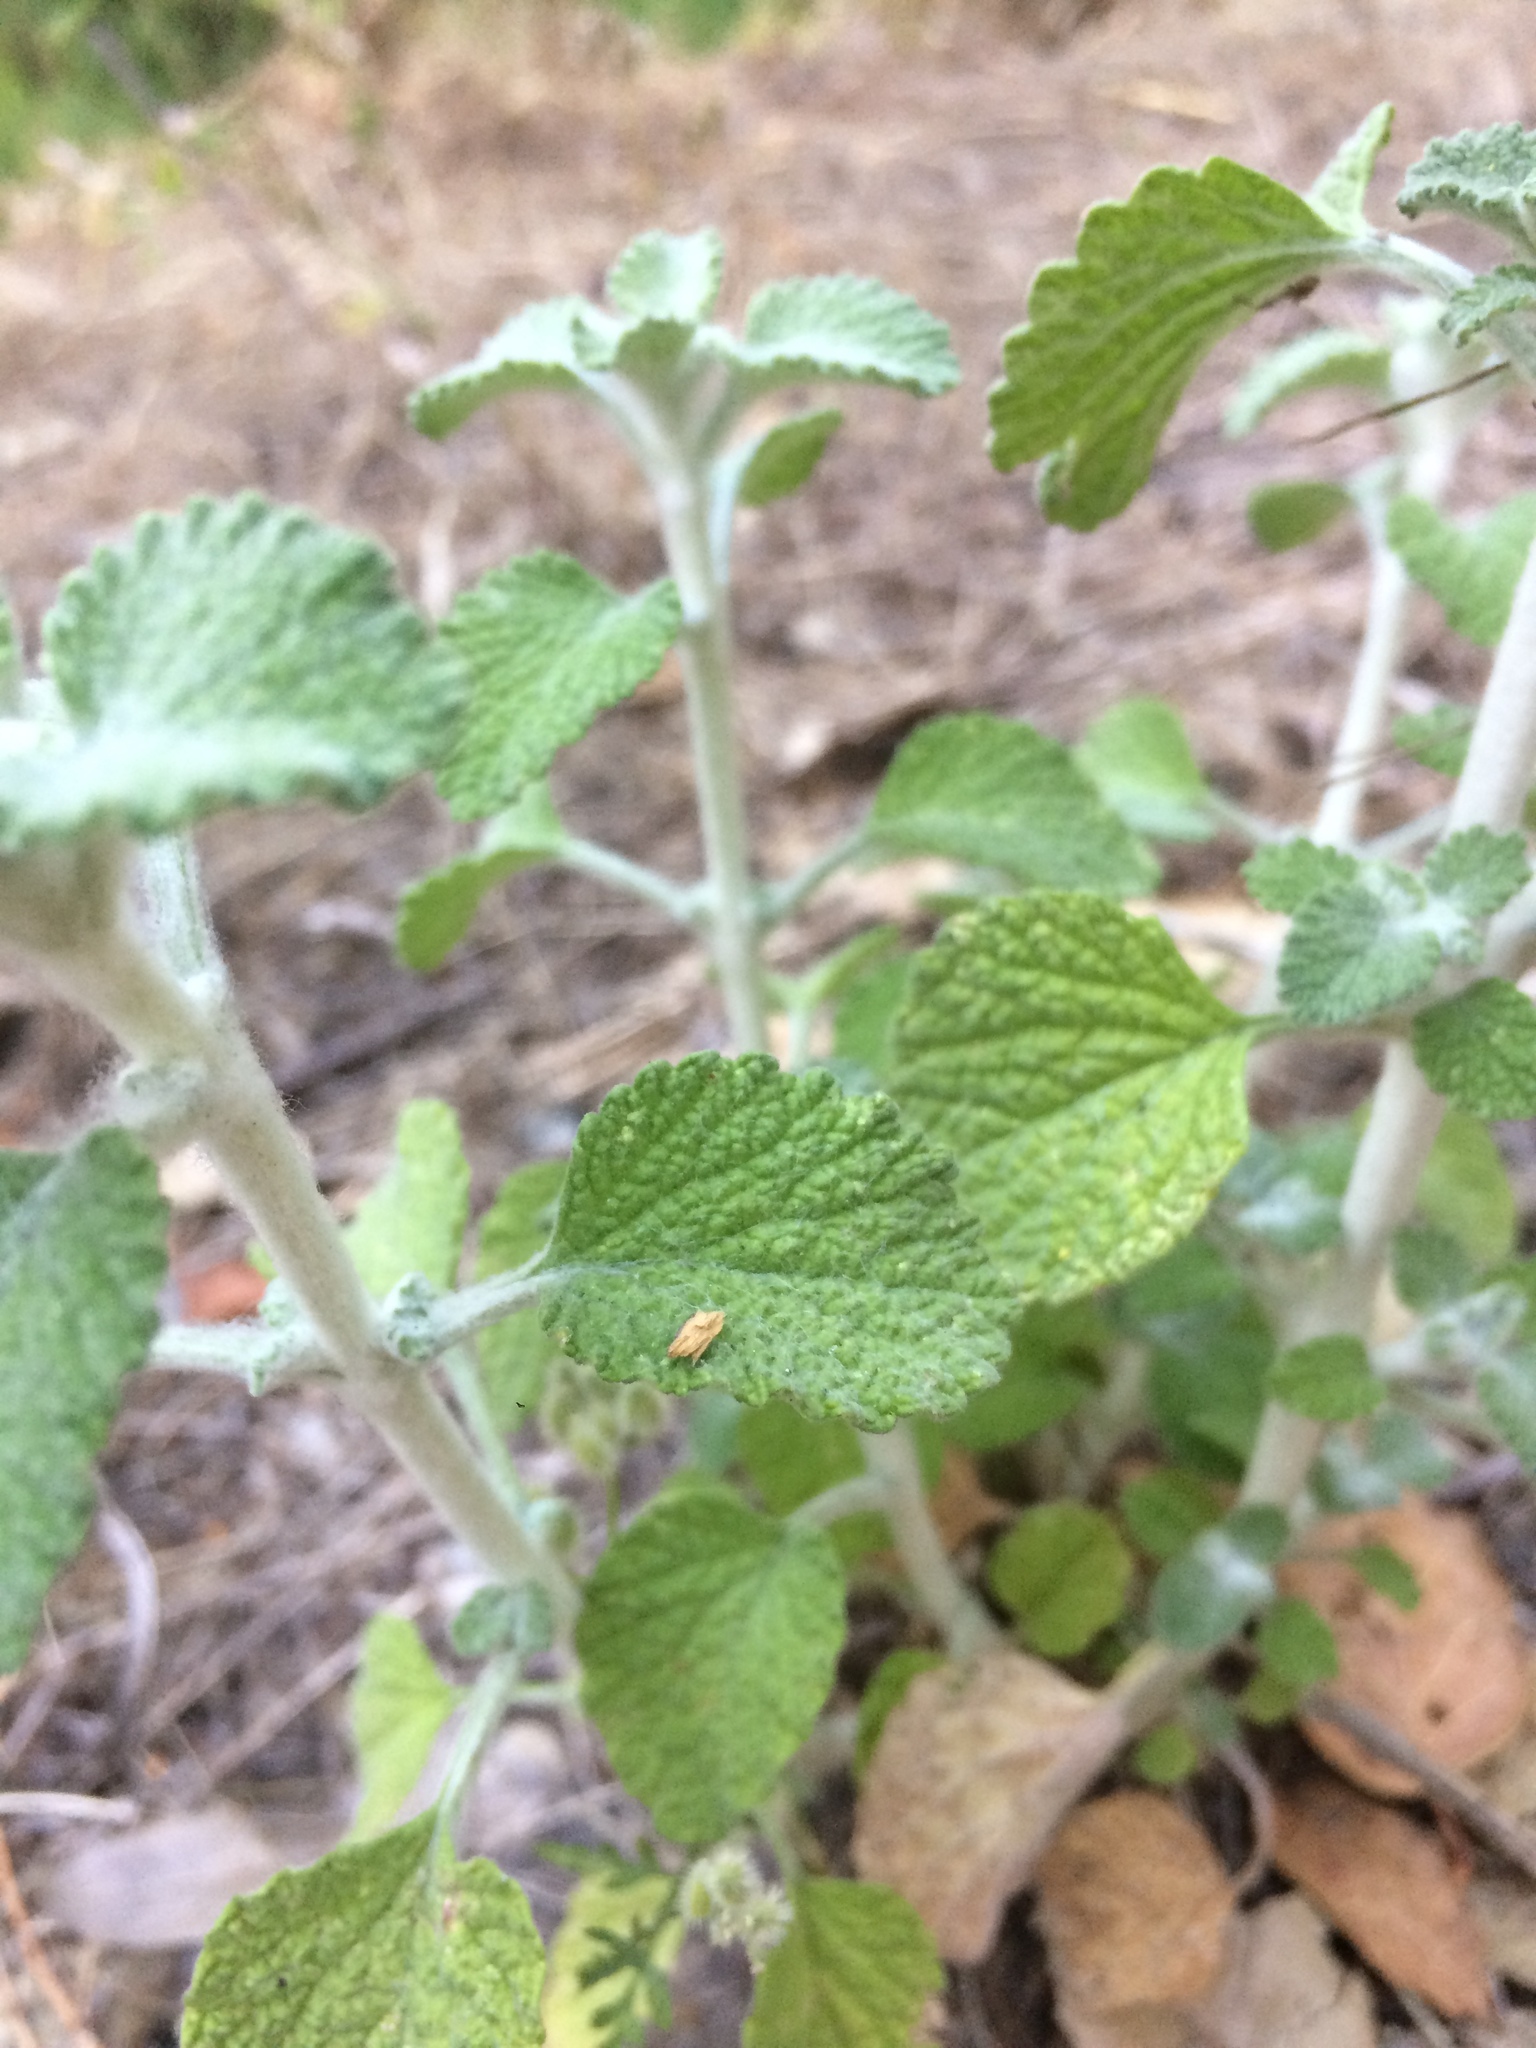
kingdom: Plantae
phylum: Tracheophyta
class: Magnoliopsida
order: Lamiales
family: Lamiaceae
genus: Marrubium
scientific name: Marrubium vulgare
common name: Horehound
